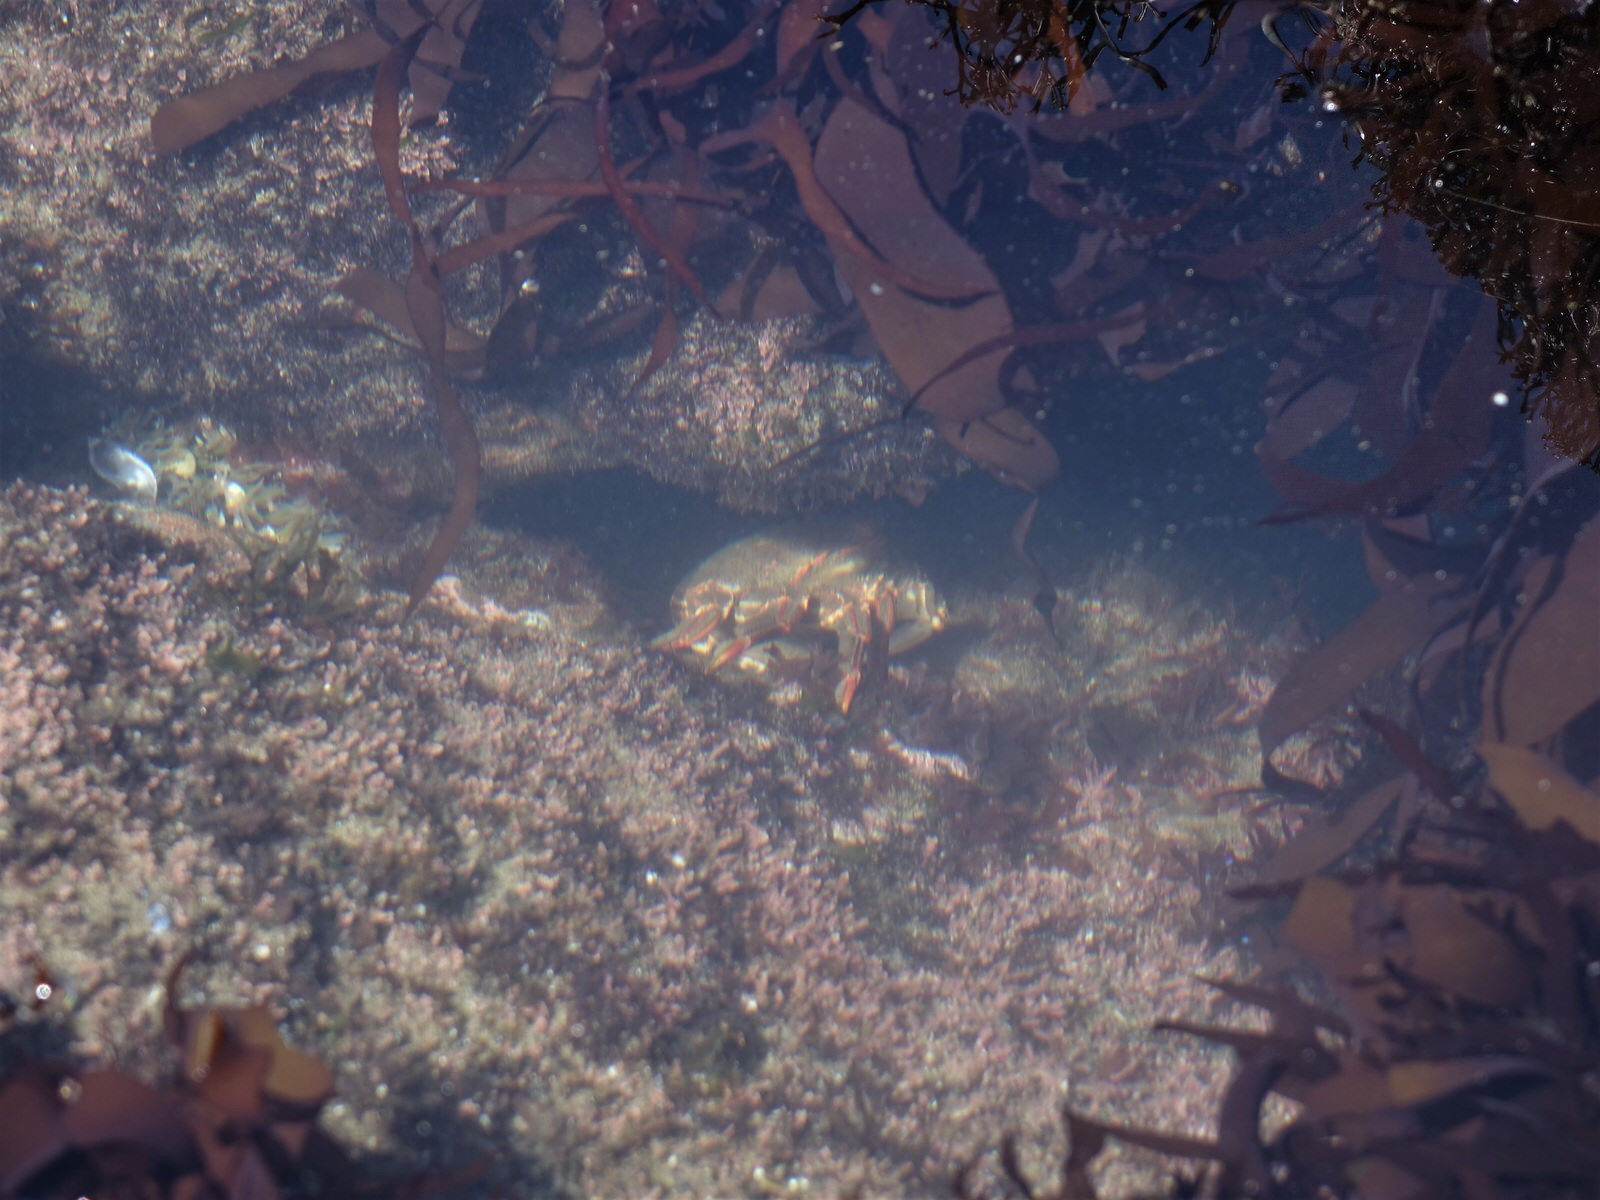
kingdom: Animalia
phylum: Arthropoda
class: Malacostraca
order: Decapoda
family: Plagusiidae
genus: Guinusia
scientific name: Guinusia chabrus
